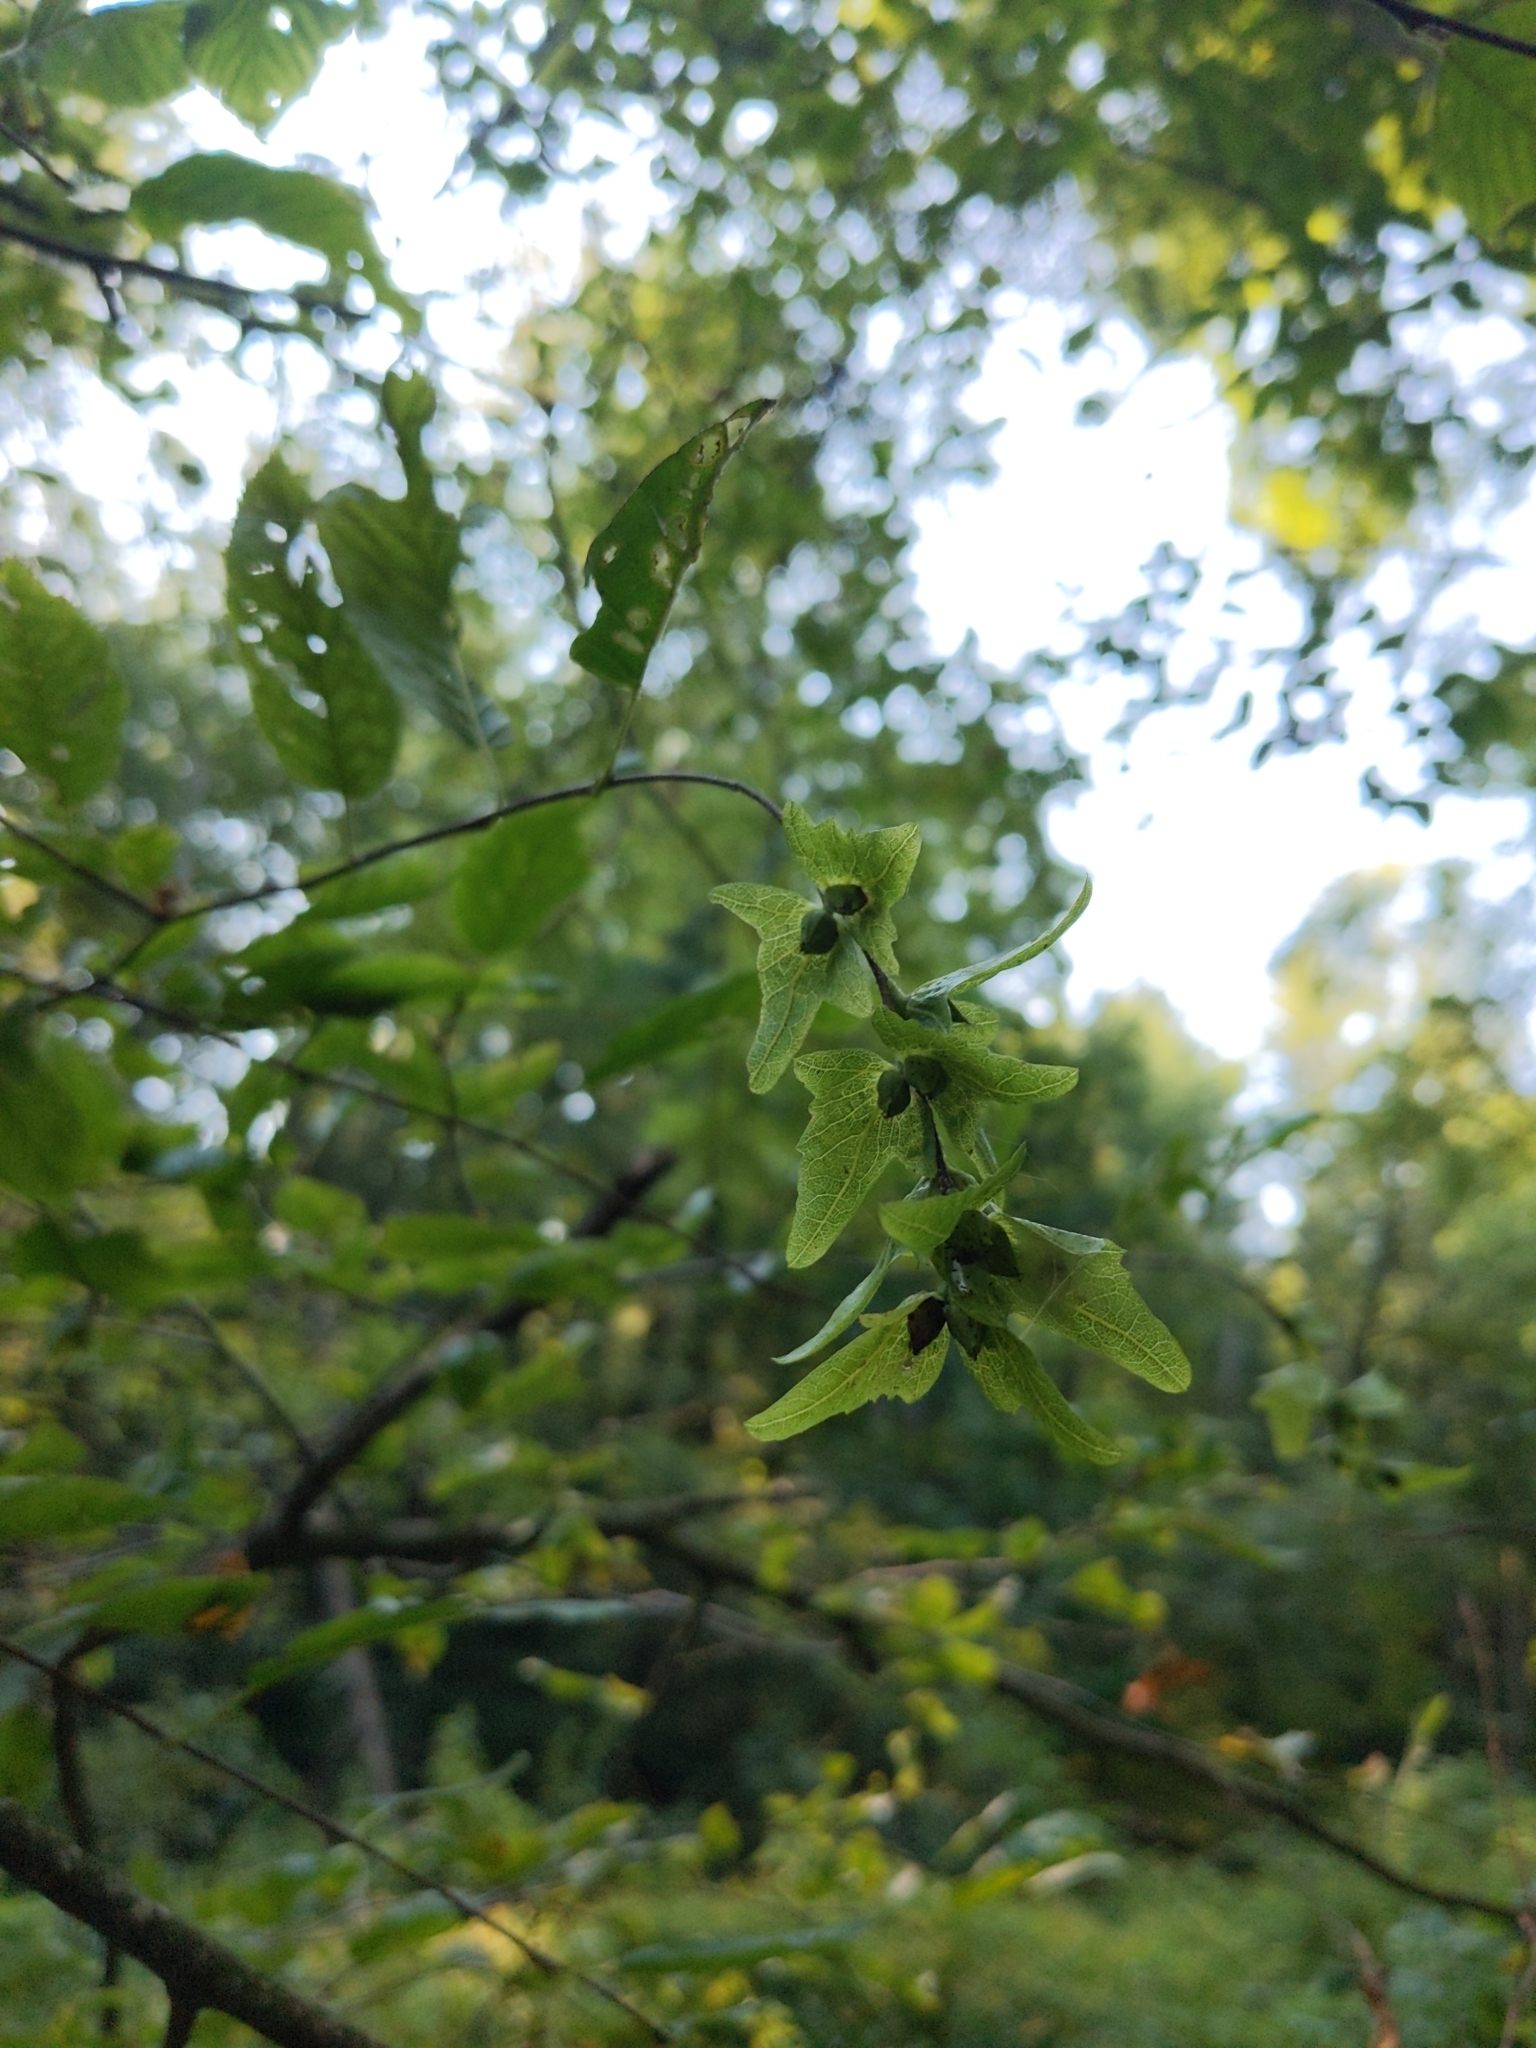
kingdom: Plantae
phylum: Tracheophyta
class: Magnoliopsida
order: Fagales
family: Betulaceae
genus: Carpinus
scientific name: Carpinus caroliniana
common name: American hornbeam
